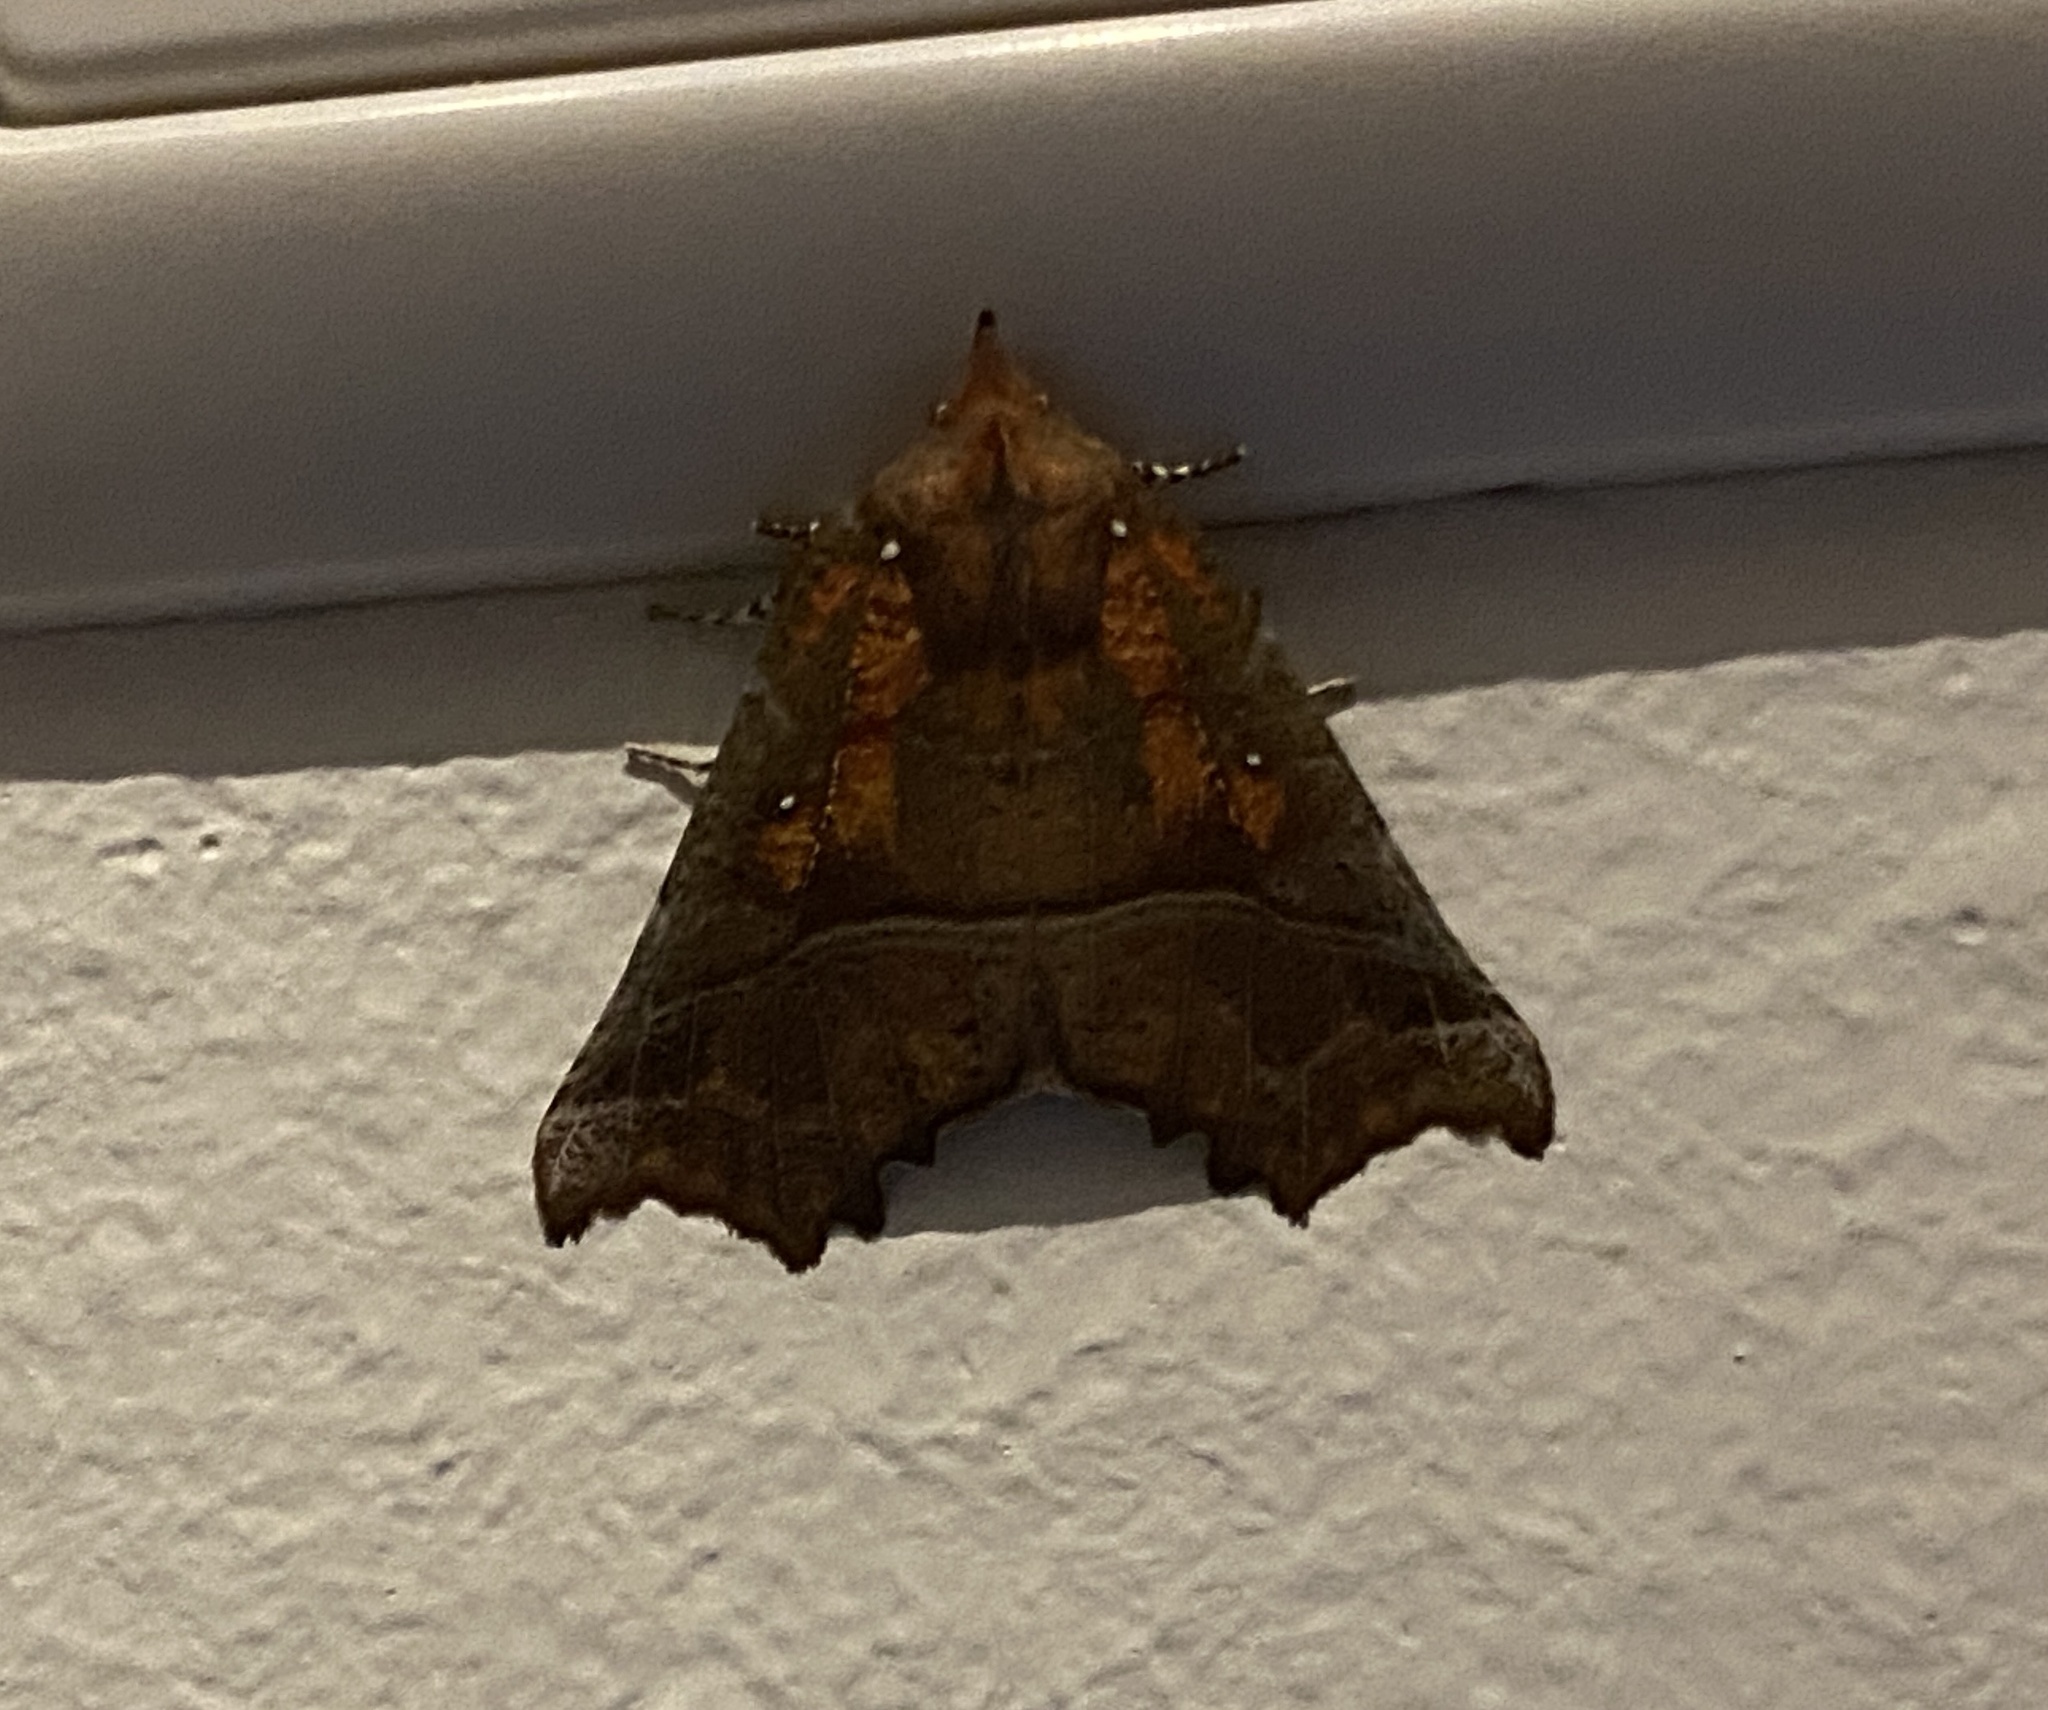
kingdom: Animalia
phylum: Arthropoda
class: Insecta
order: Lepidoptera
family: Erebidae
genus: Scoliopteryx
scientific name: Scoliopteryx libatrix
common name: Herald
